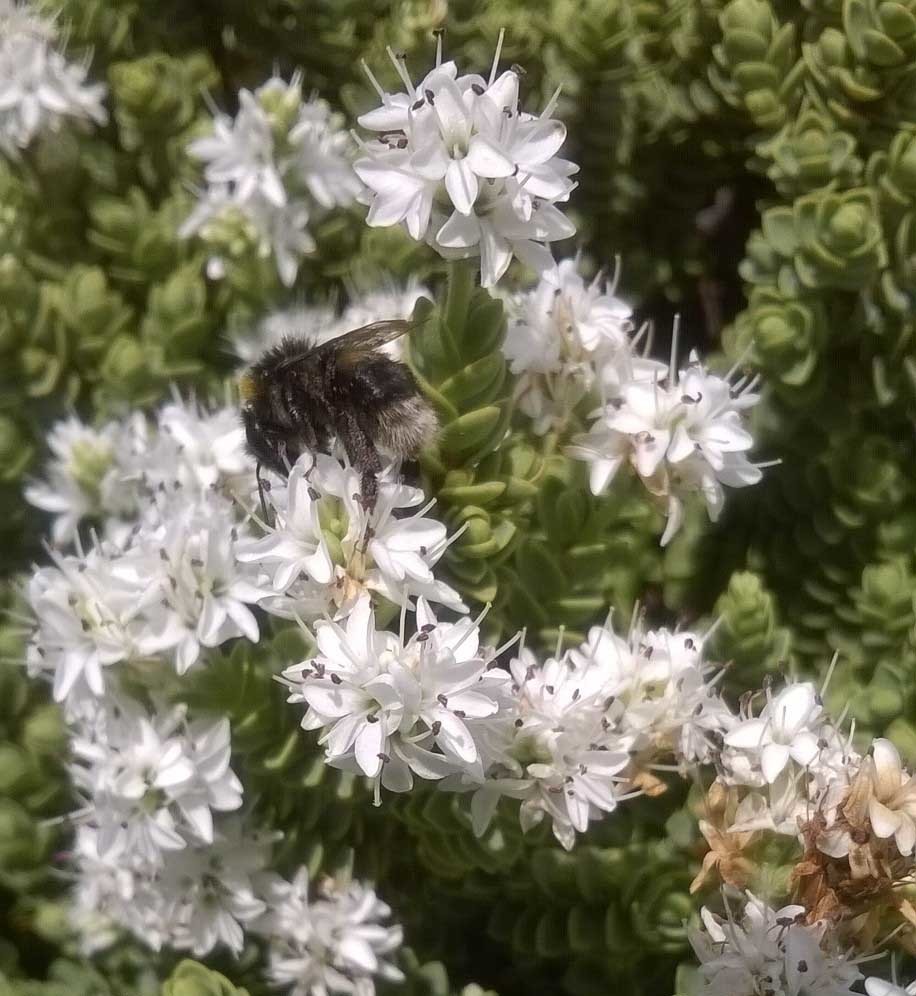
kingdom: Animalia
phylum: Arthropoda
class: Insecta
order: Hymenoptera
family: Apidae
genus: Bombus
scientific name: Bombus terrestris
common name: Buff-tailed bumblebee
